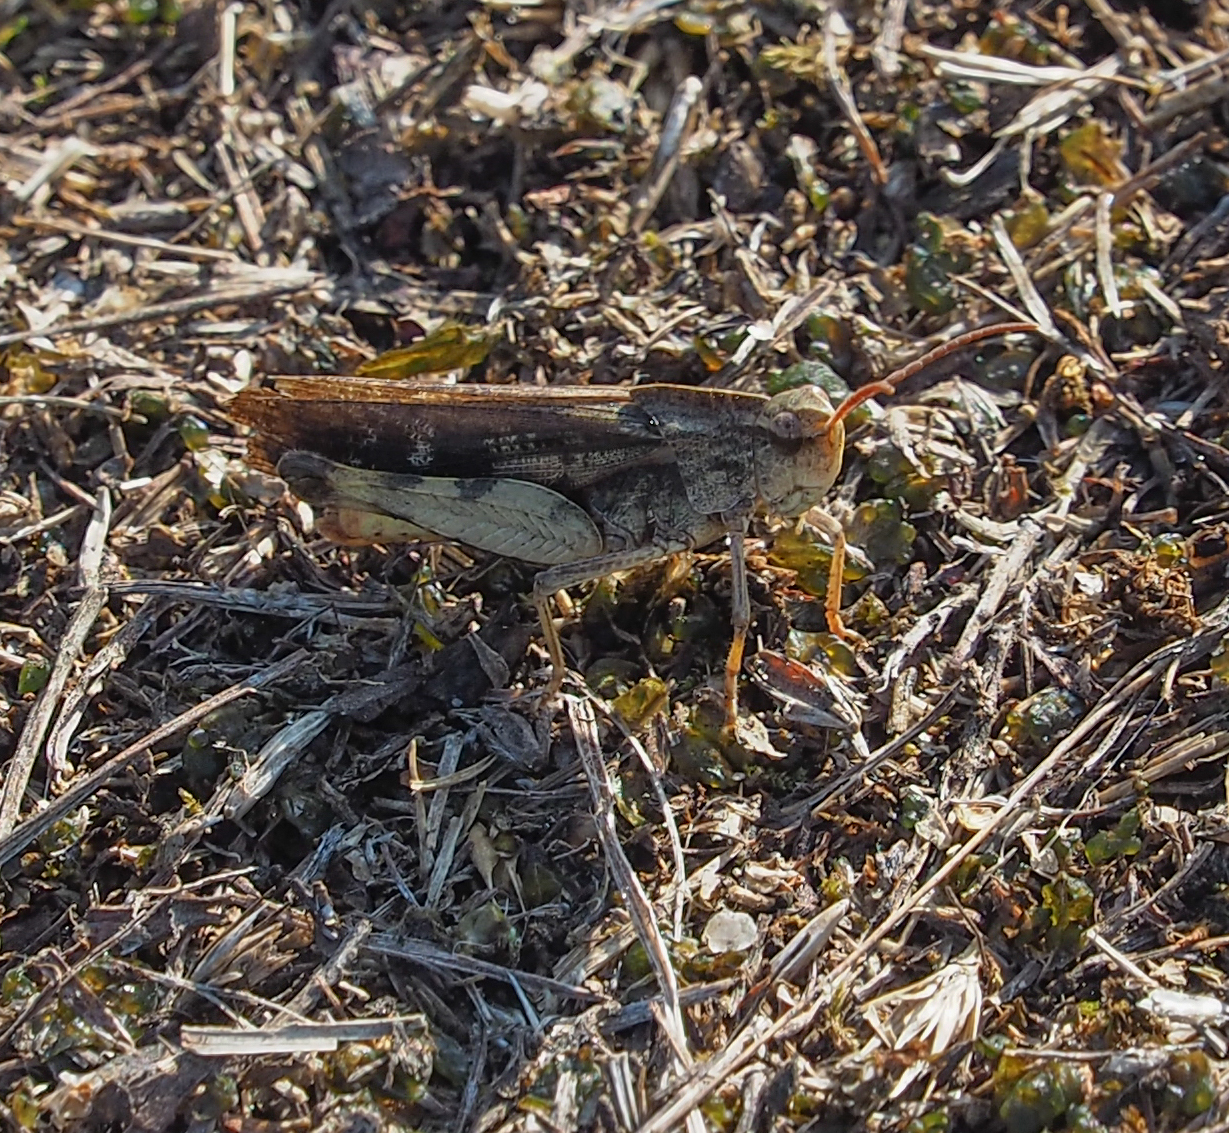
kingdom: Animalia
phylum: Arthropoda
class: Insecta
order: Orthoptera
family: Acrididae
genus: Chortophaga
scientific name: Chortophaga viridifasciata
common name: Green-striped grasshopper
